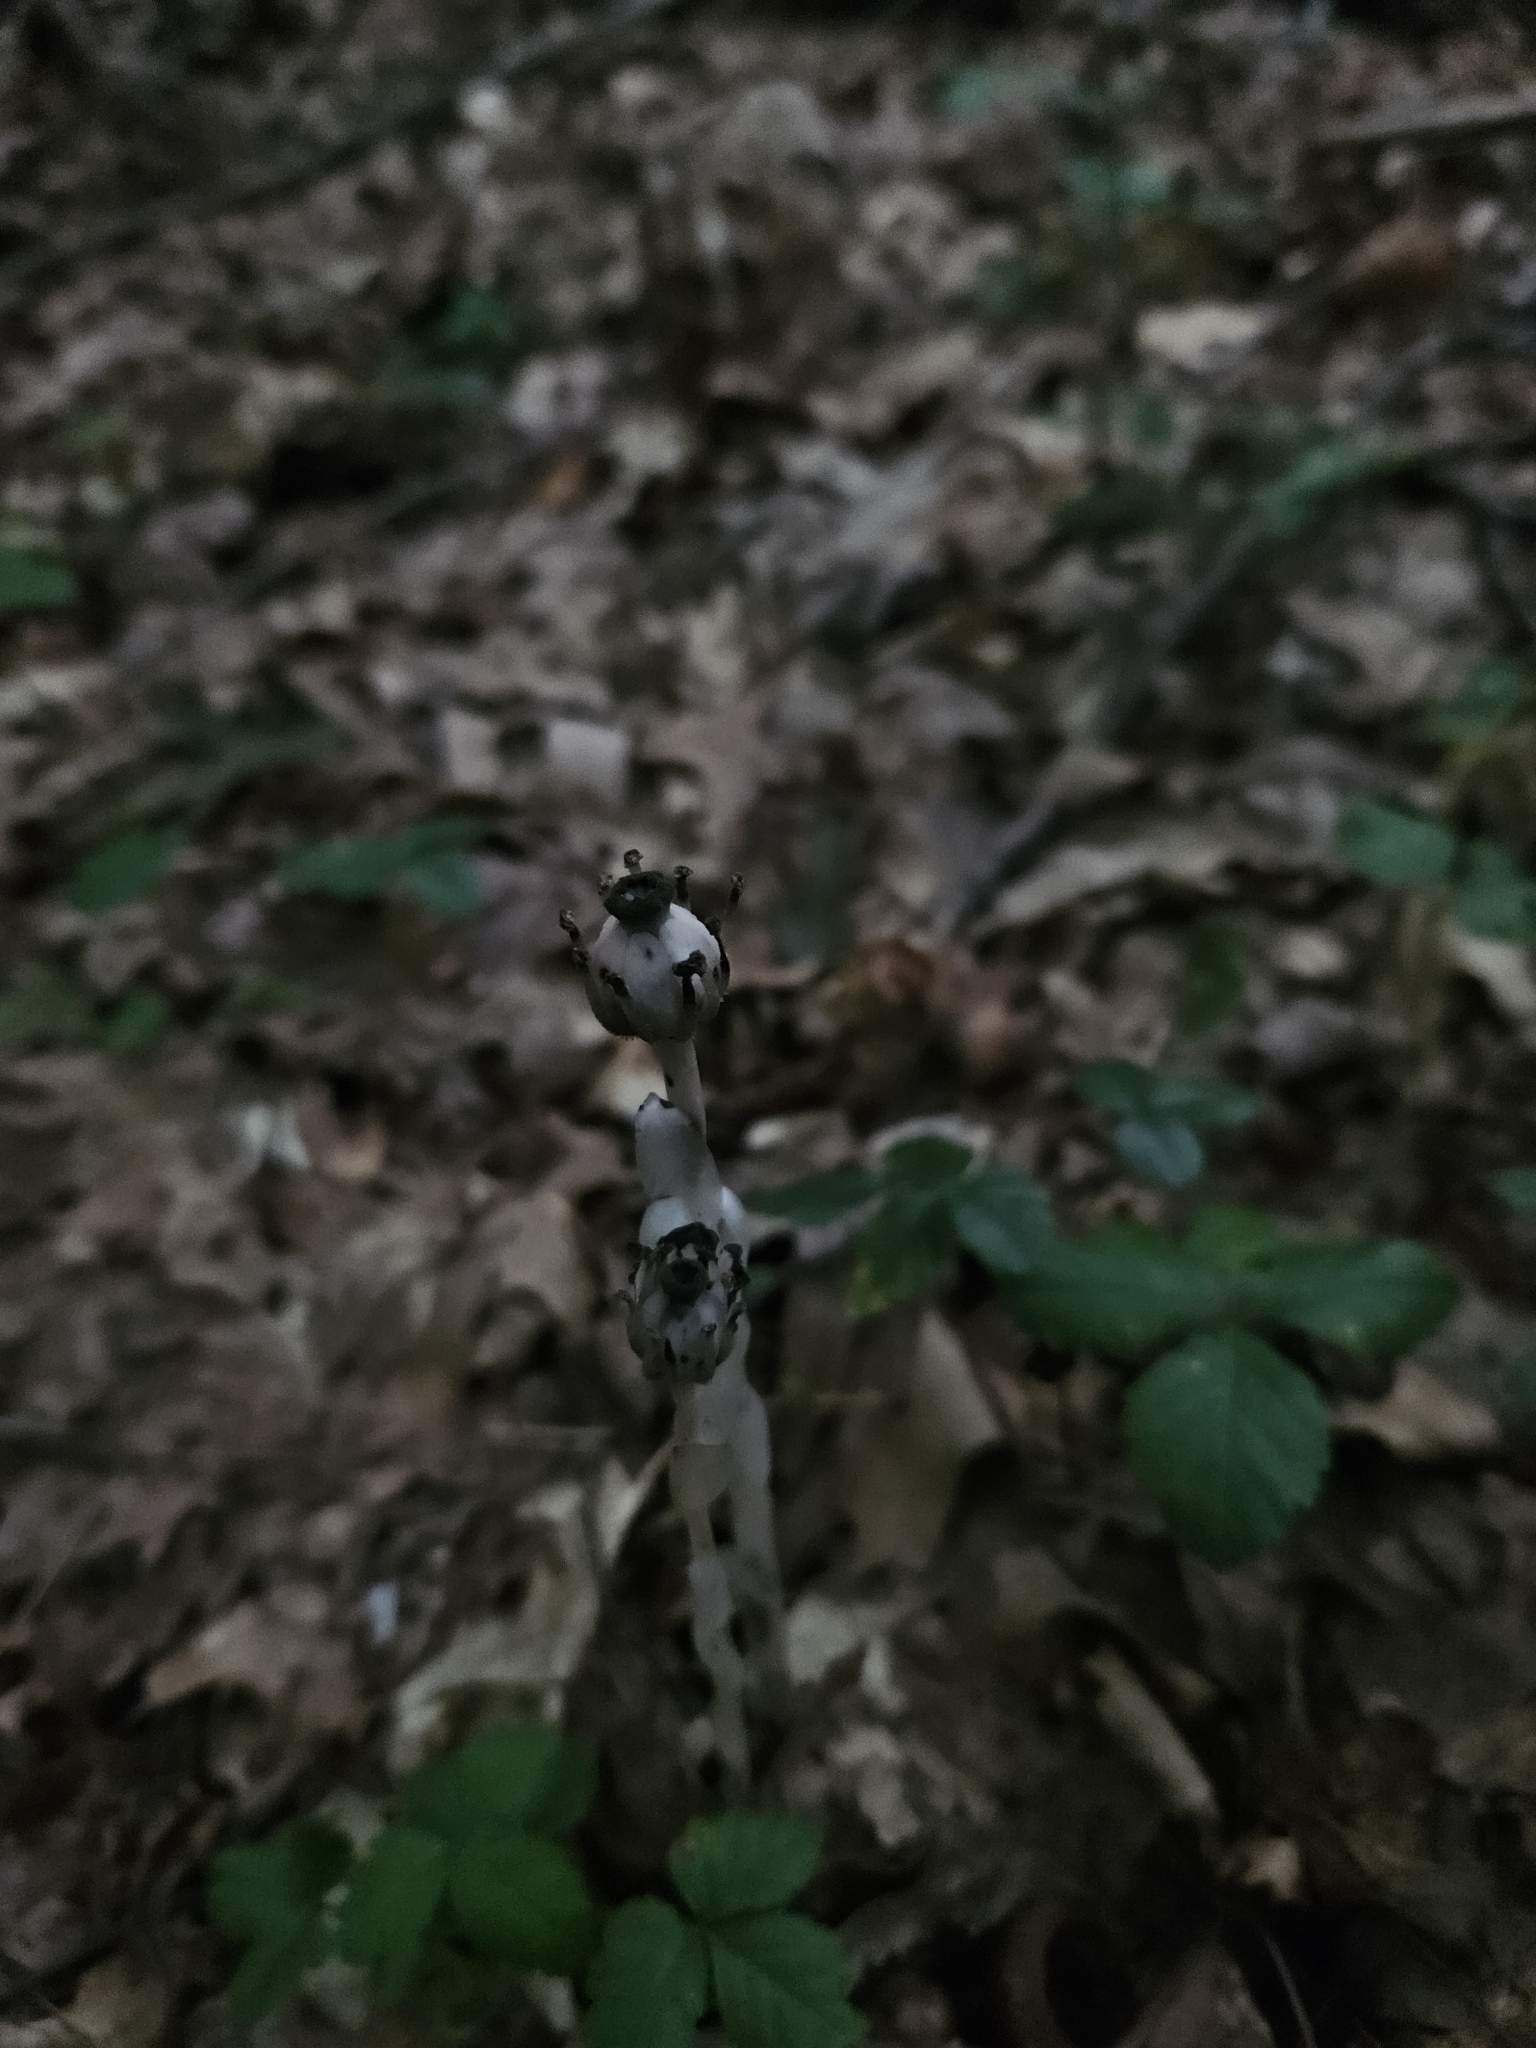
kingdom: Plantae
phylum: Tracheophyta
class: Magnoliopsida
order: Ericales
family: Ericaceae
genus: Monotropa
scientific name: Monotropa uniflora
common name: Convulsion root
